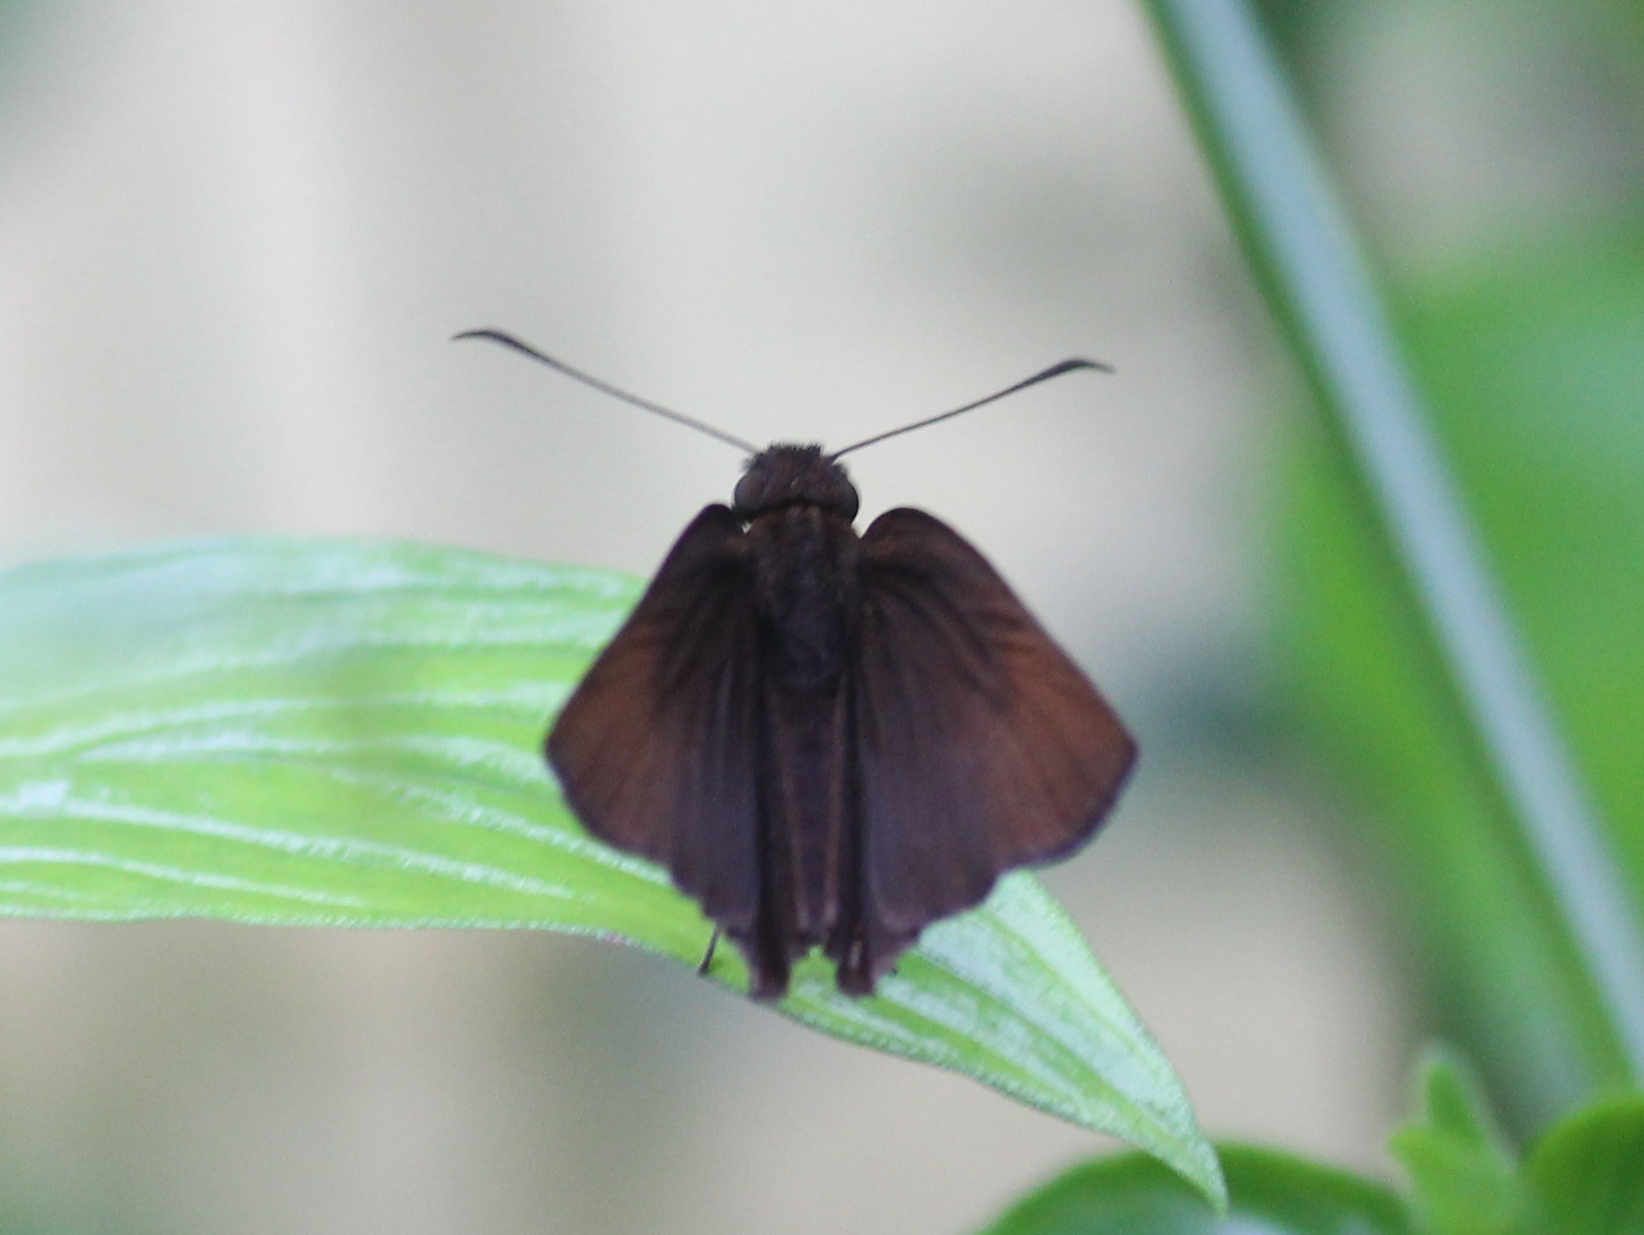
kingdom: Animalia
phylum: Arthropoda
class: Insecta
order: Lepidoptera
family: Hesperiidae
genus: Psolos
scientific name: Psolos fuligo
